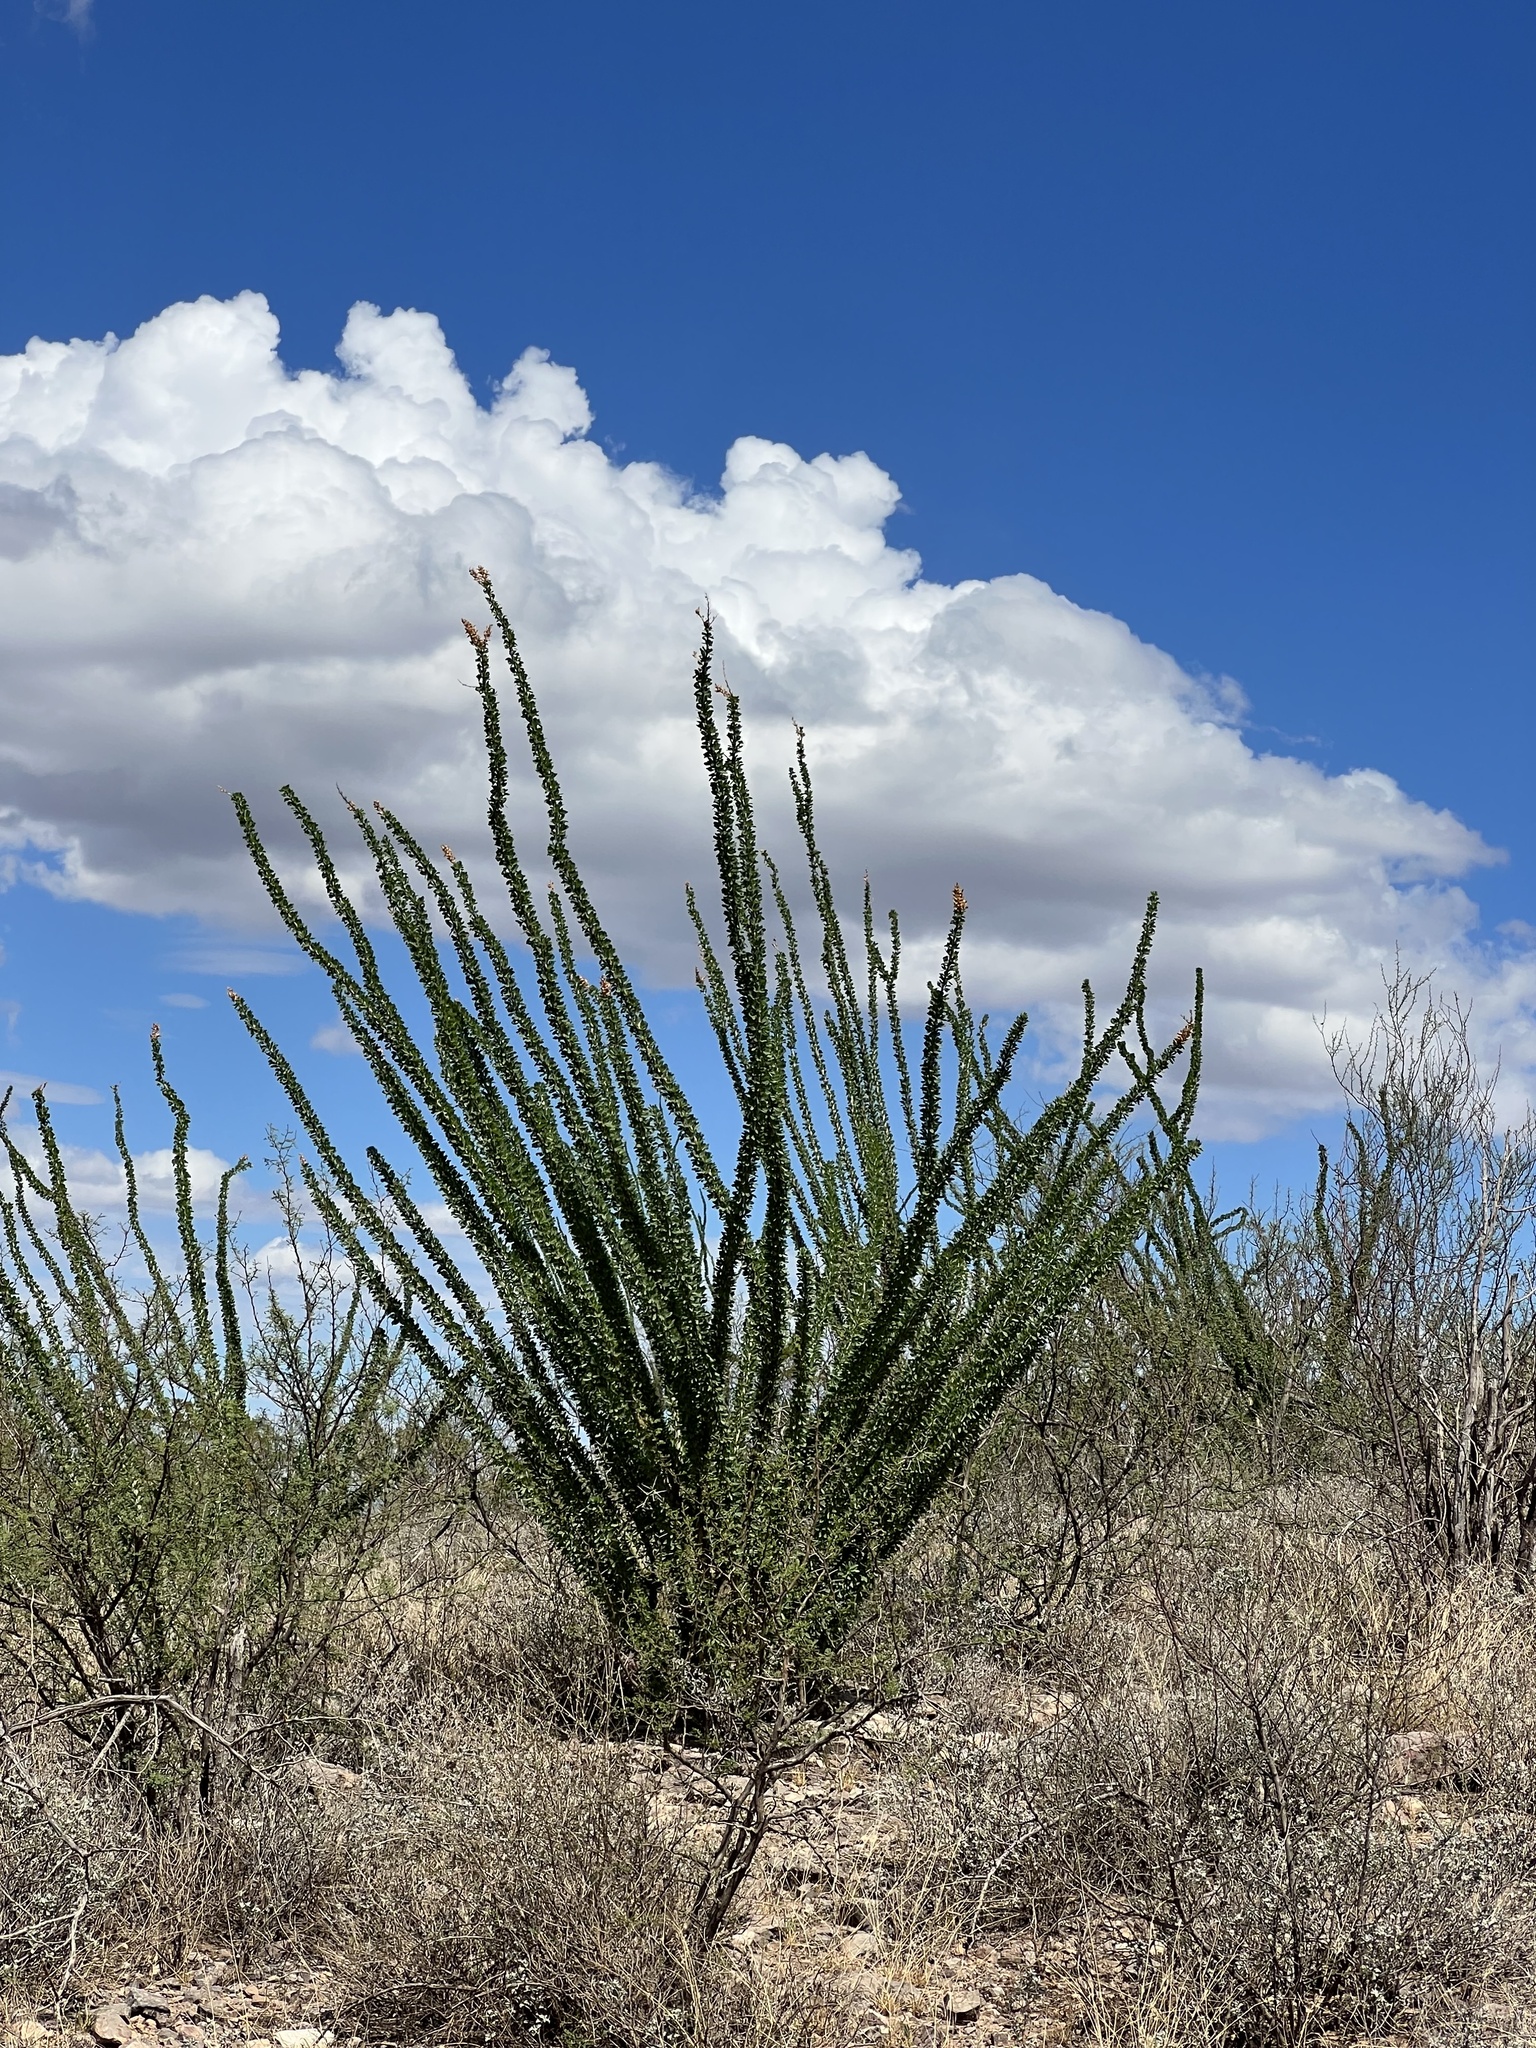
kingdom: Plantae
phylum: Tracheophyta
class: Magnoliopsida
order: Ericales
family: Fouquieriaceae
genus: Fouquieria
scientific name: Fouquieria splendens
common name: Vine-cactus
